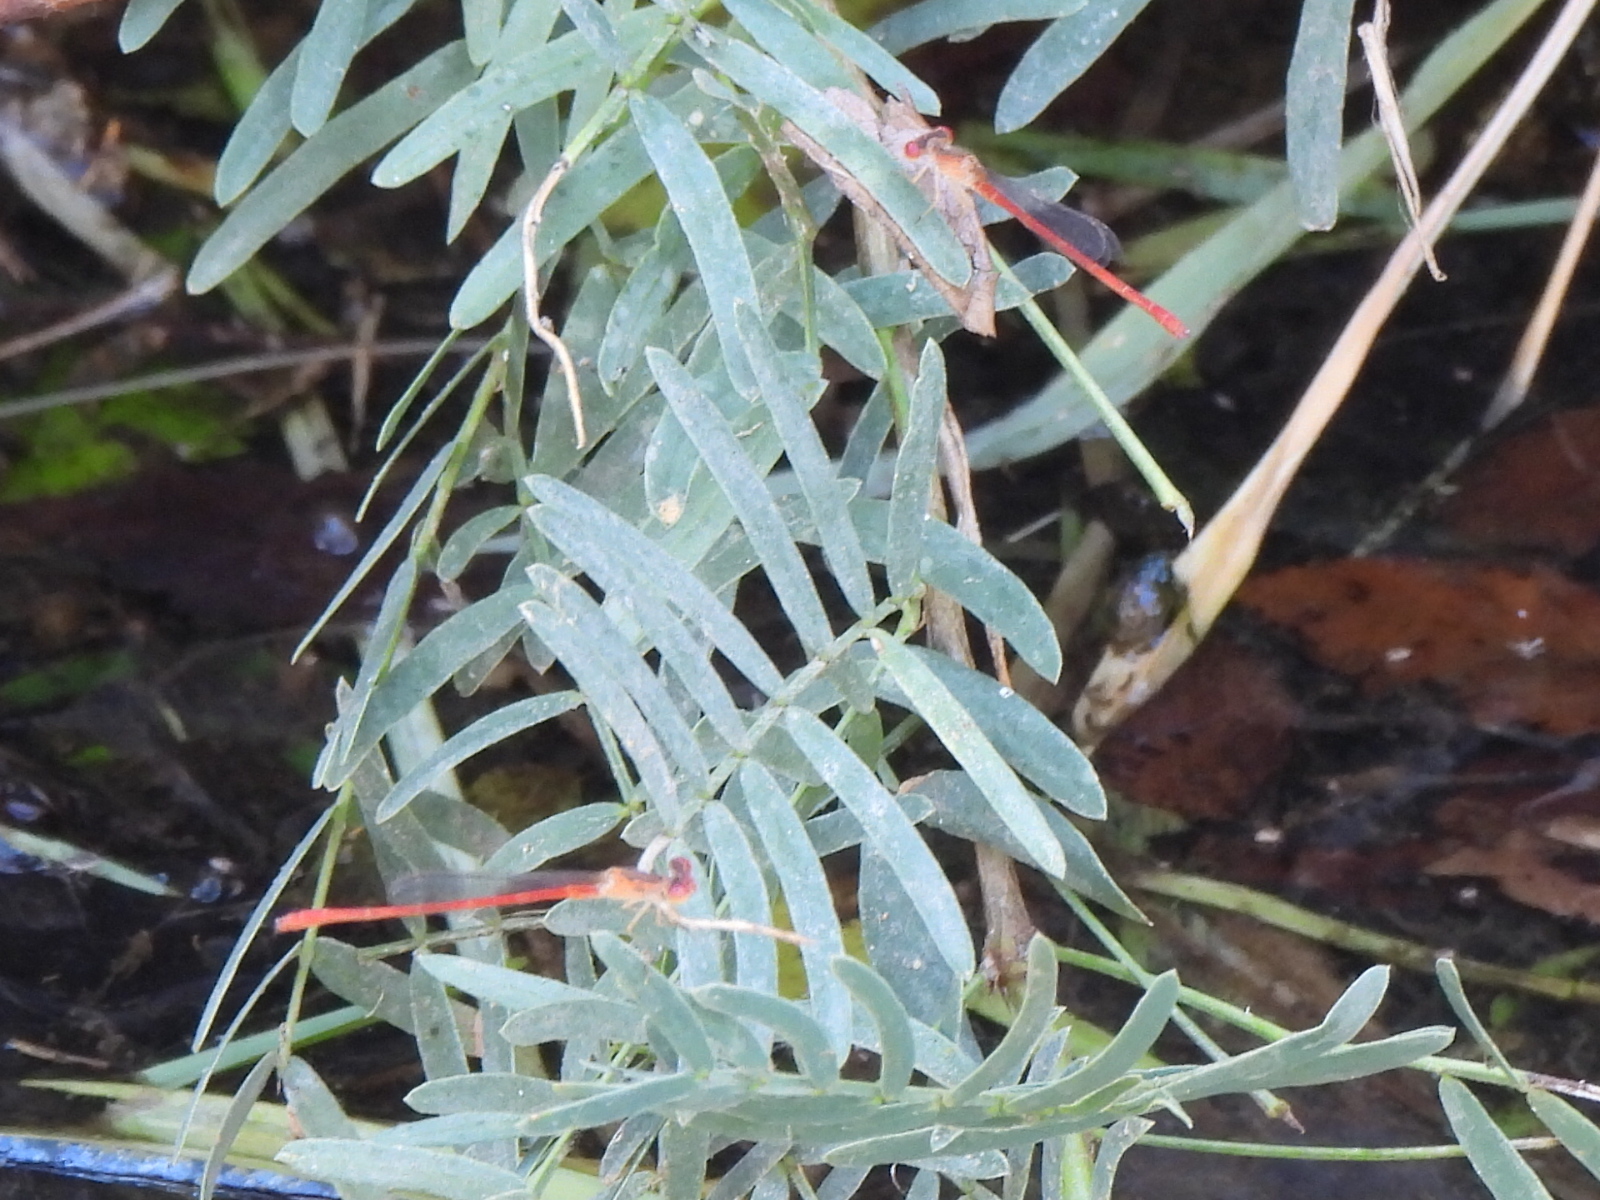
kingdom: Animalia
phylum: Arthropoda
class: Insecta
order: Odonata
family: Coenagrionidae
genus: Telebasis
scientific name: Telebasis salva
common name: Desert firetail
